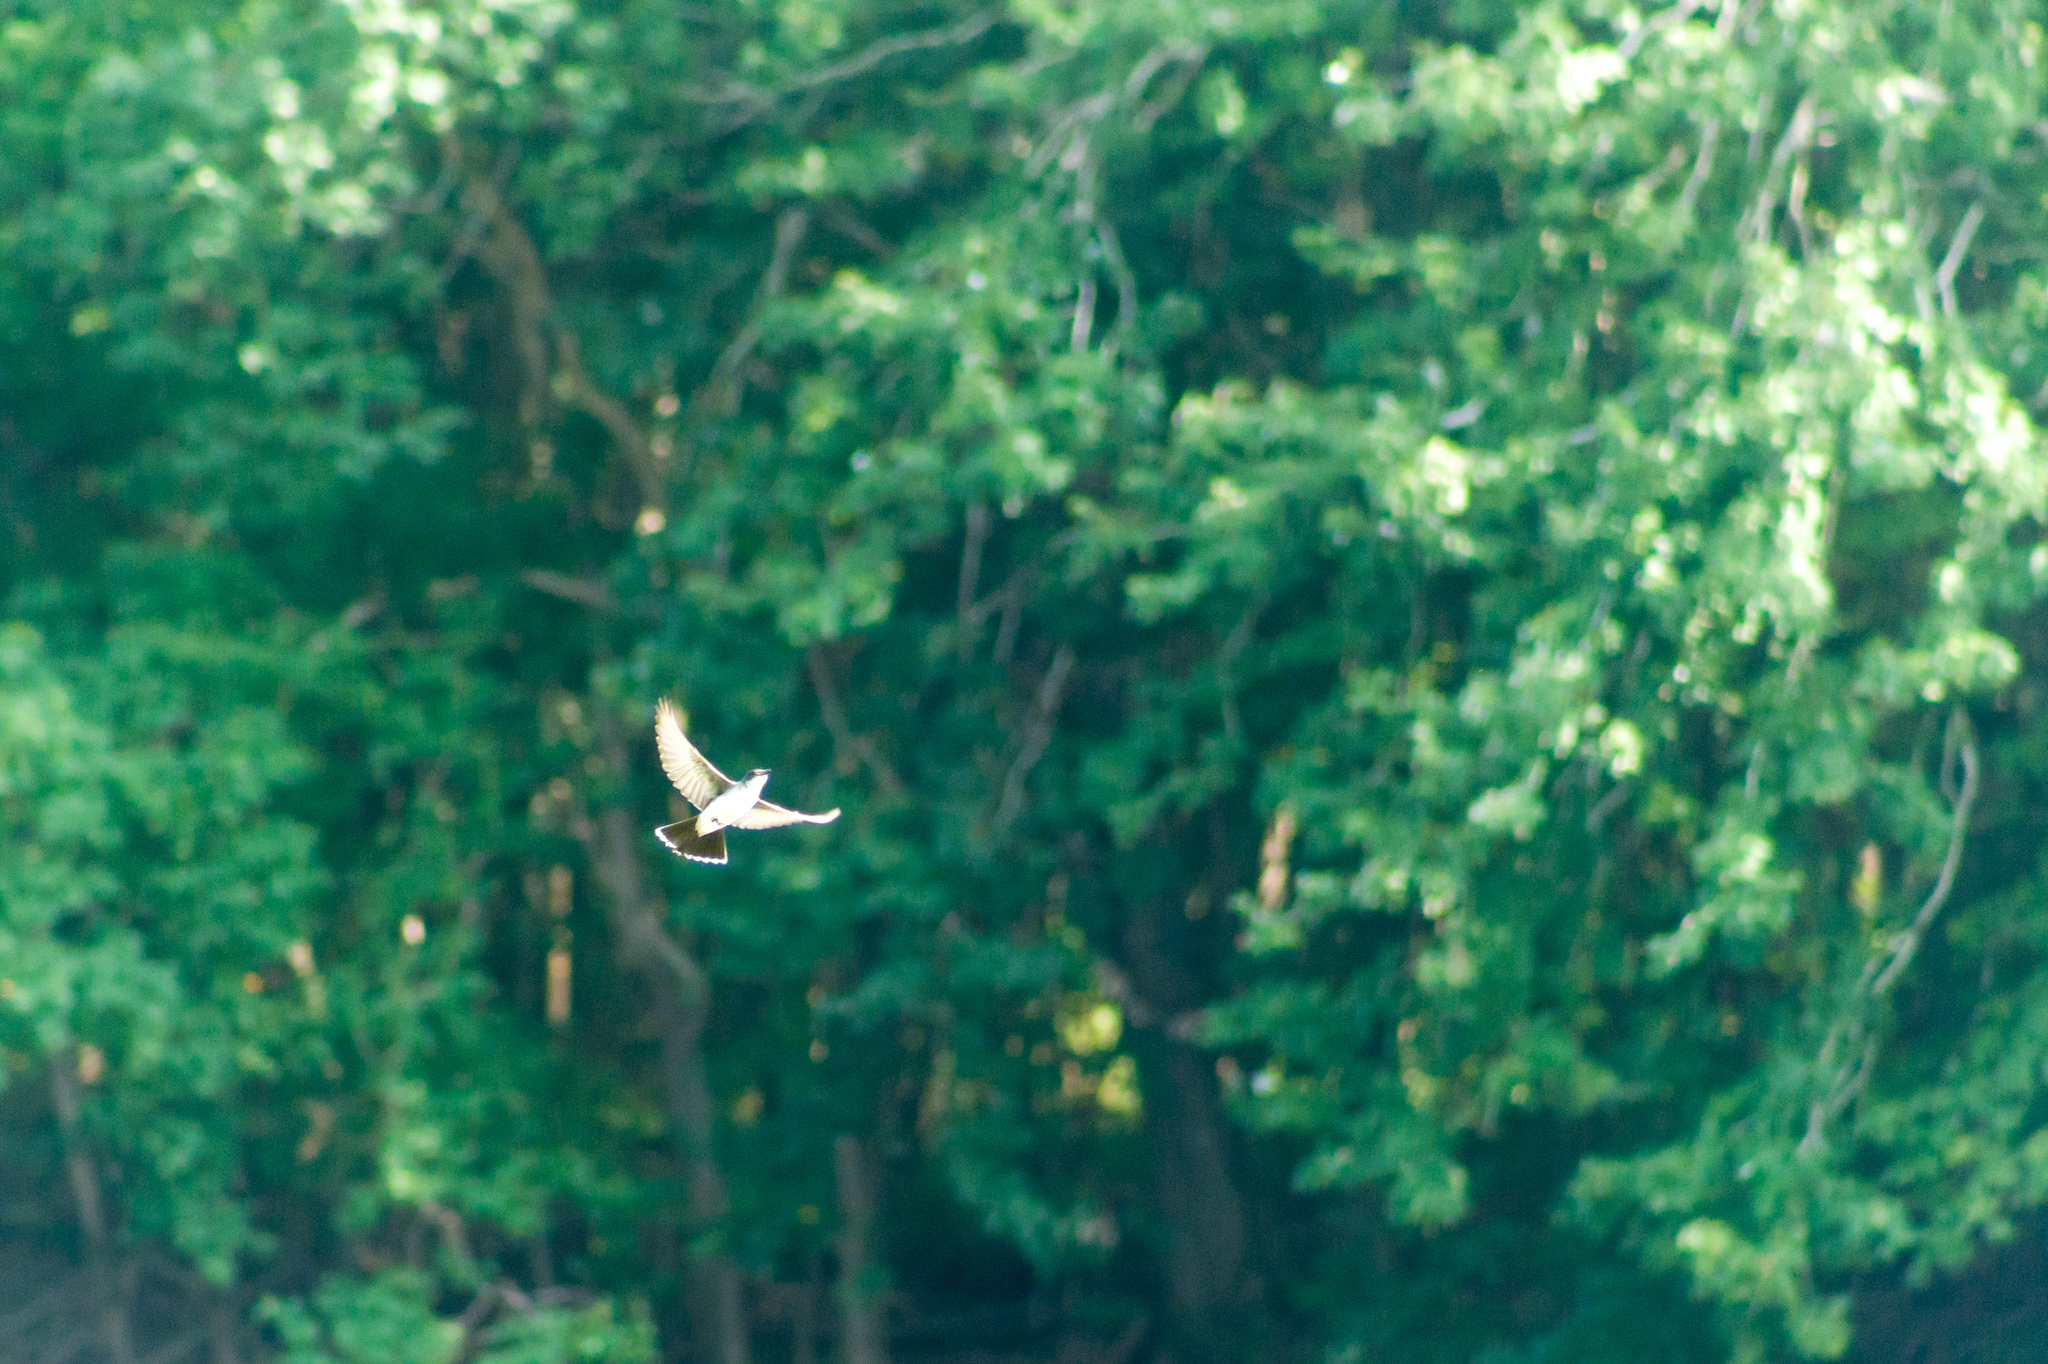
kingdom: Animalia
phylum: Chordata
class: Aves
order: Passeriformes
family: Tyrannidae
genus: Tyrannus
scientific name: Tyrannus tyrannus
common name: Eastern kingbird
